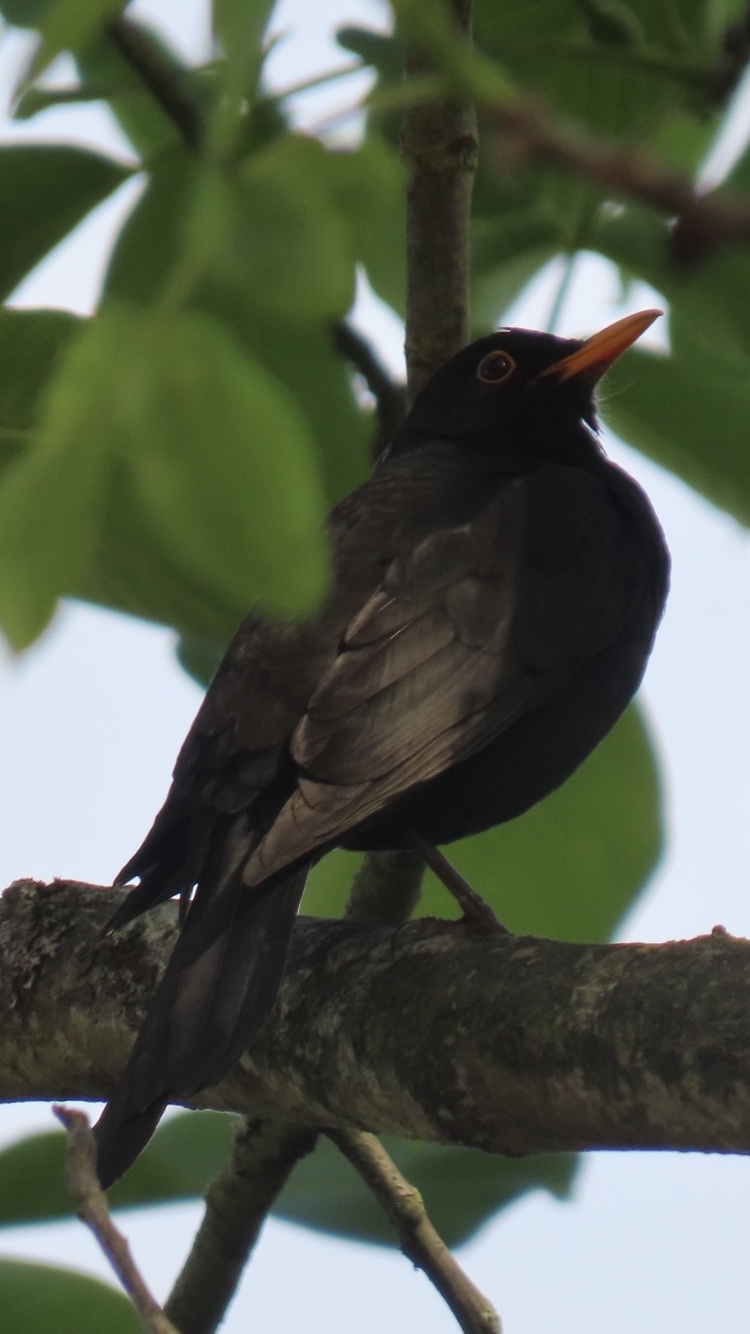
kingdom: Animalia
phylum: Chordata
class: Aves
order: Passeriformes
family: Turdidae
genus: Turdus
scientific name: Turdus merula
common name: Common blackbird
